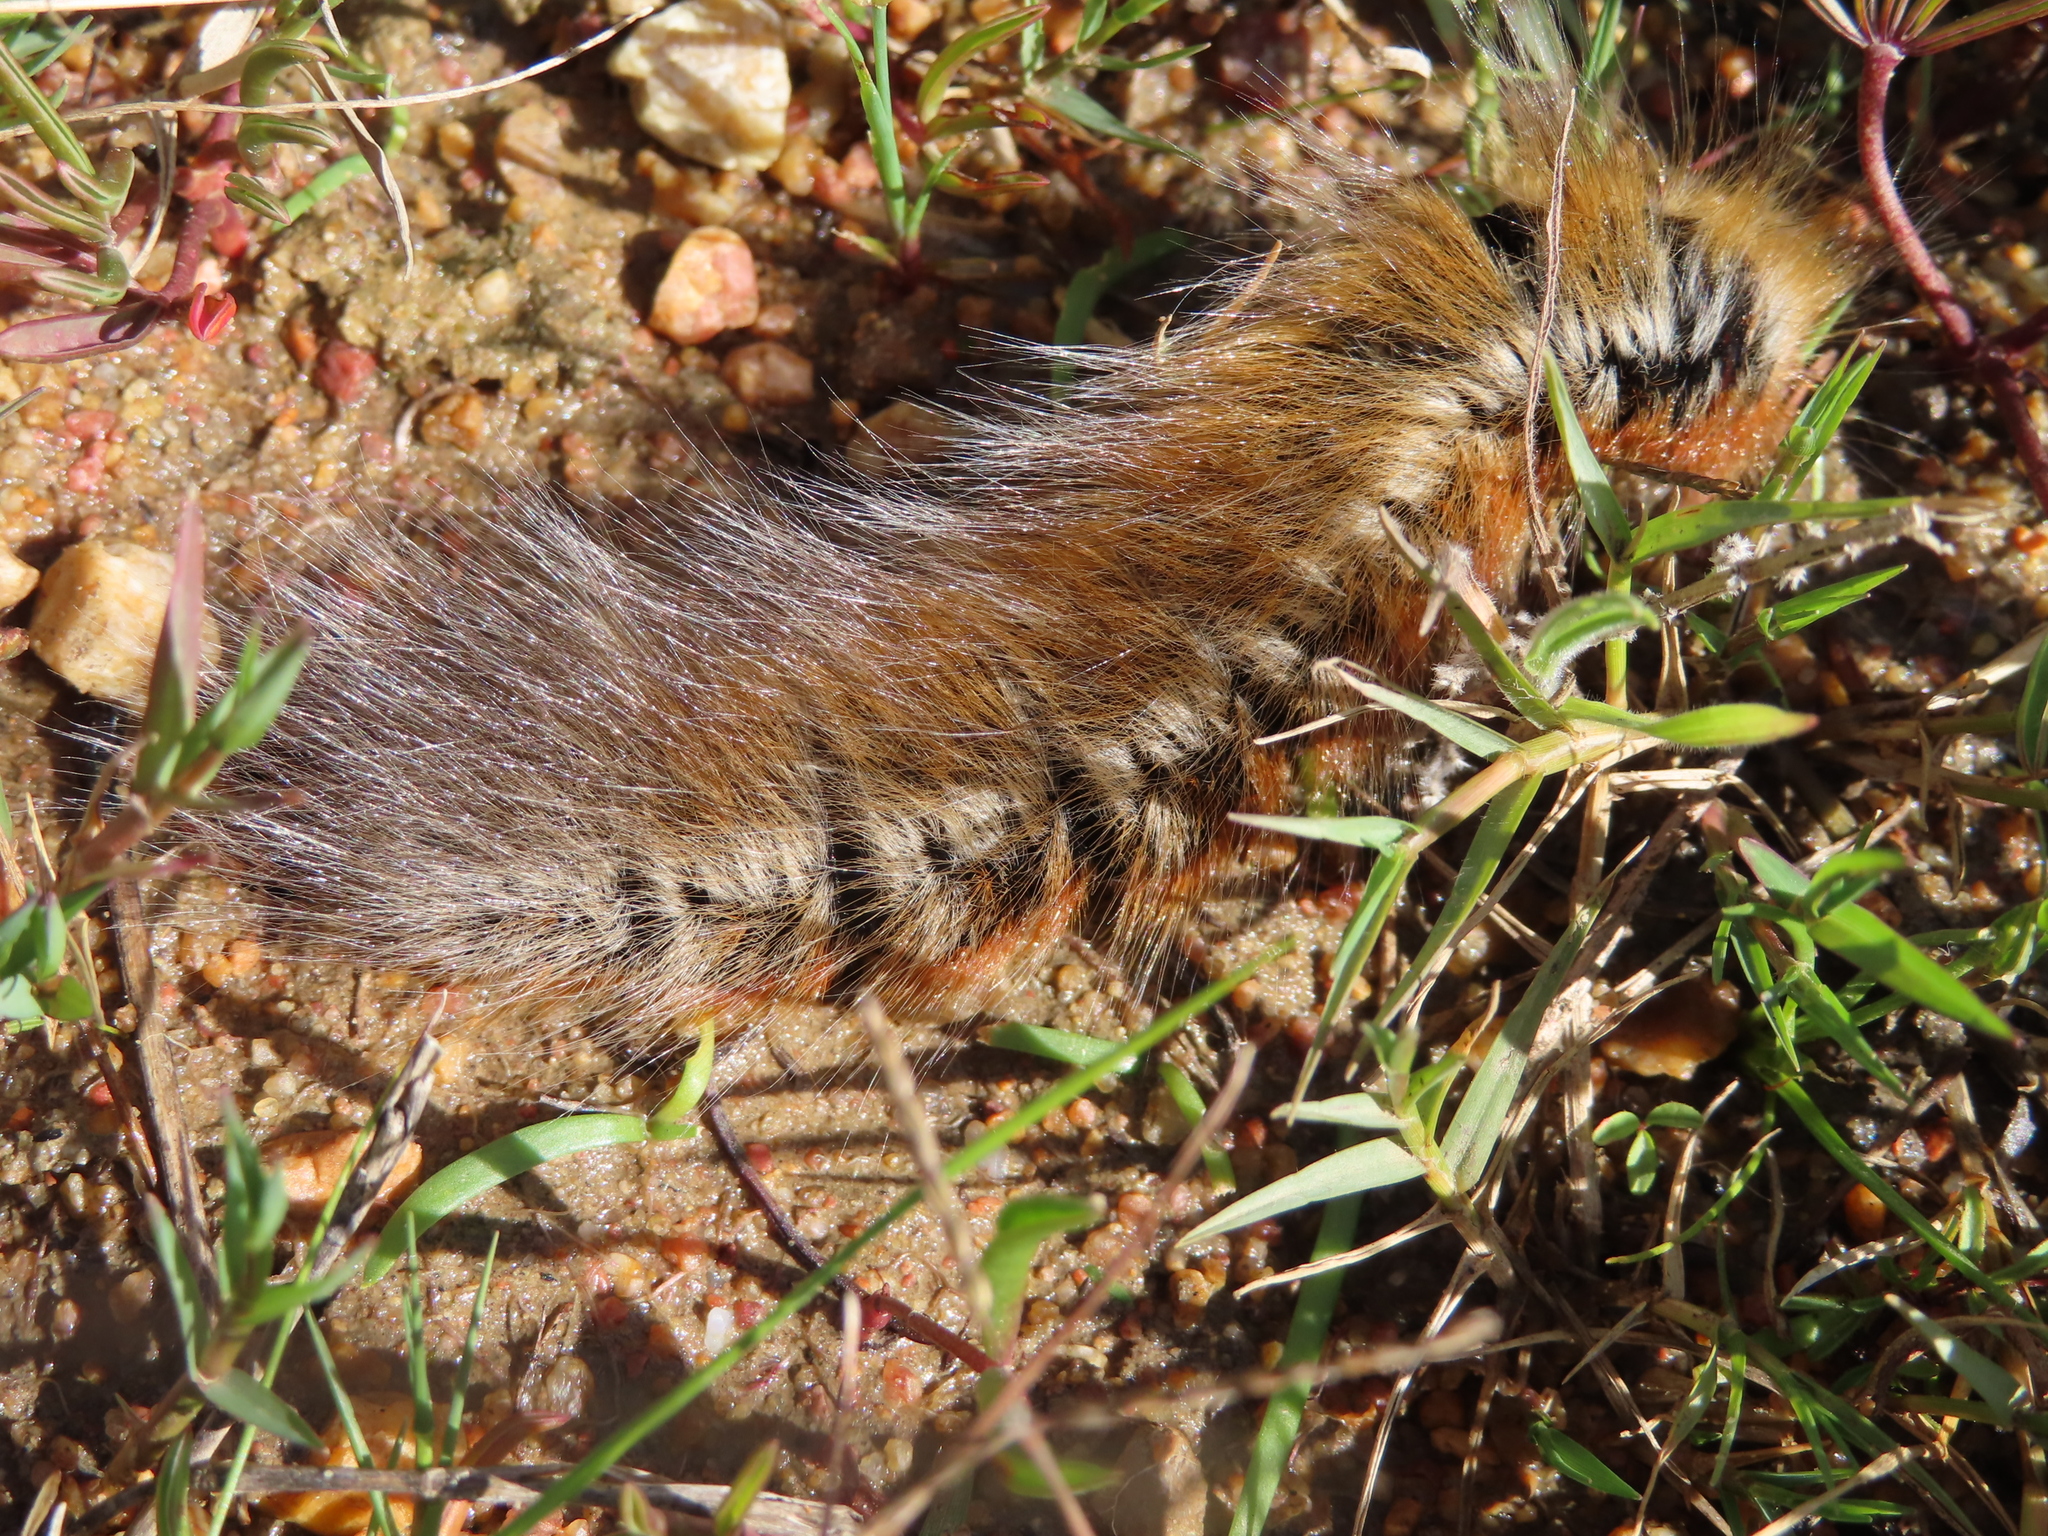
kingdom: Animalia
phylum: Arthropoda
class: Insecta
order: Lepidoptera
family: Lasiocampidae
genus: Mesocelis
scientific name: Mesocelis monticola
